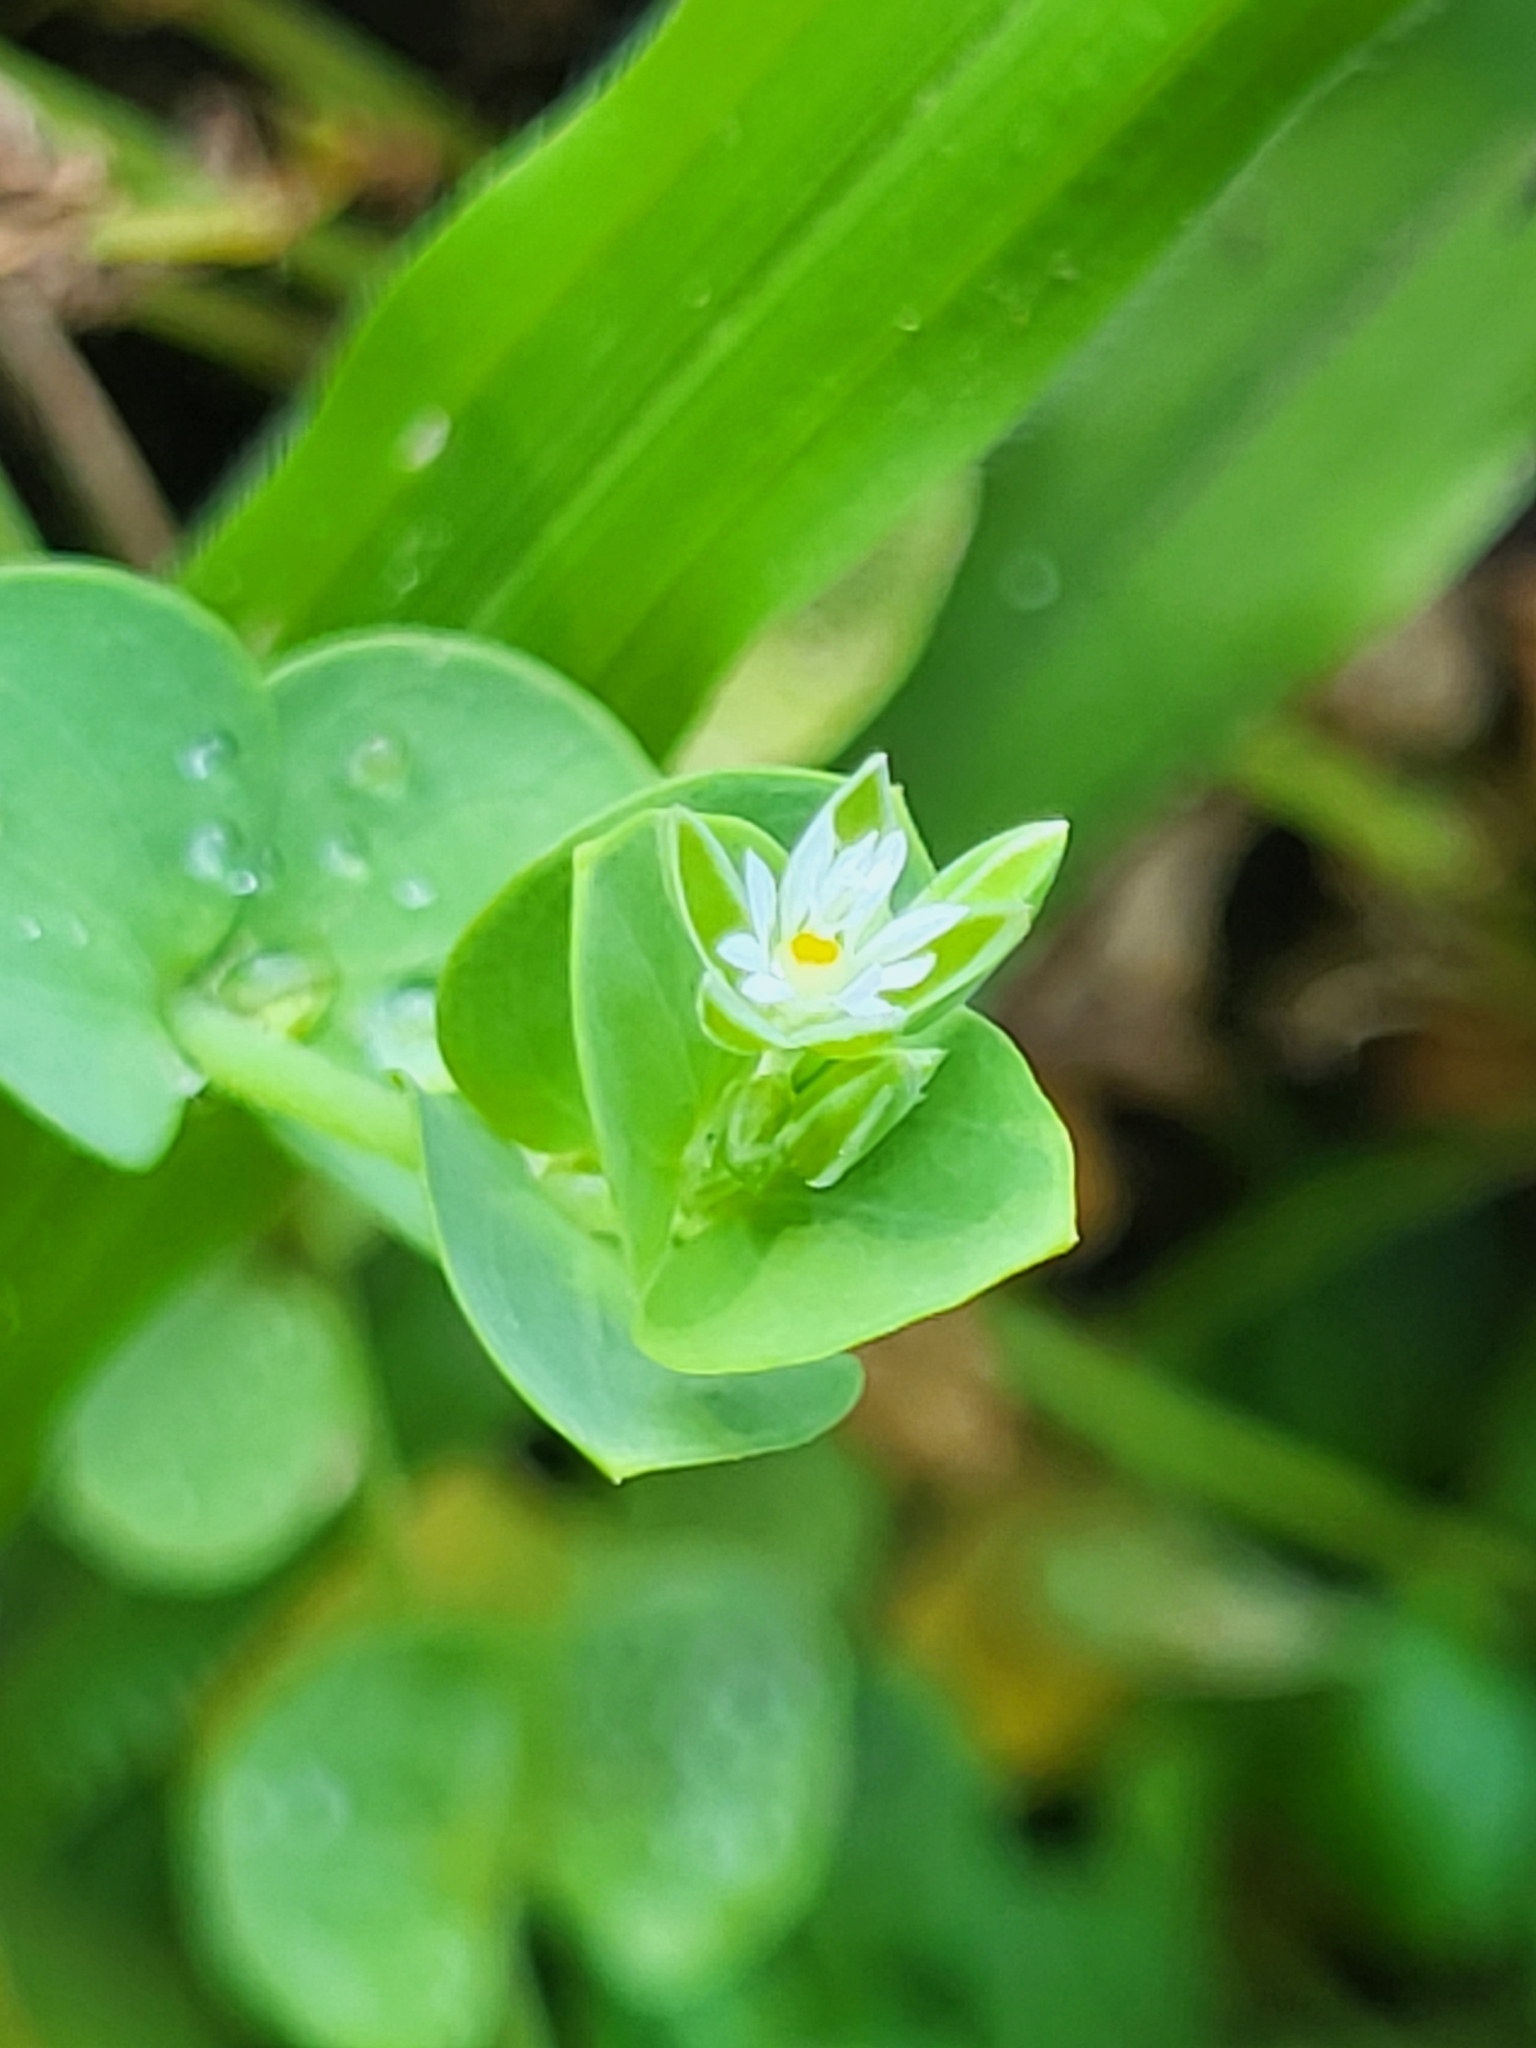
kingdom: Plantae
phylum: Tracheophyta
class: Magnoliopsida
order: Caryophyllales
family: Caryophyllaceae
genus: Drymaria
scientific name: Drymaria cordata
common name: Whitesnow
